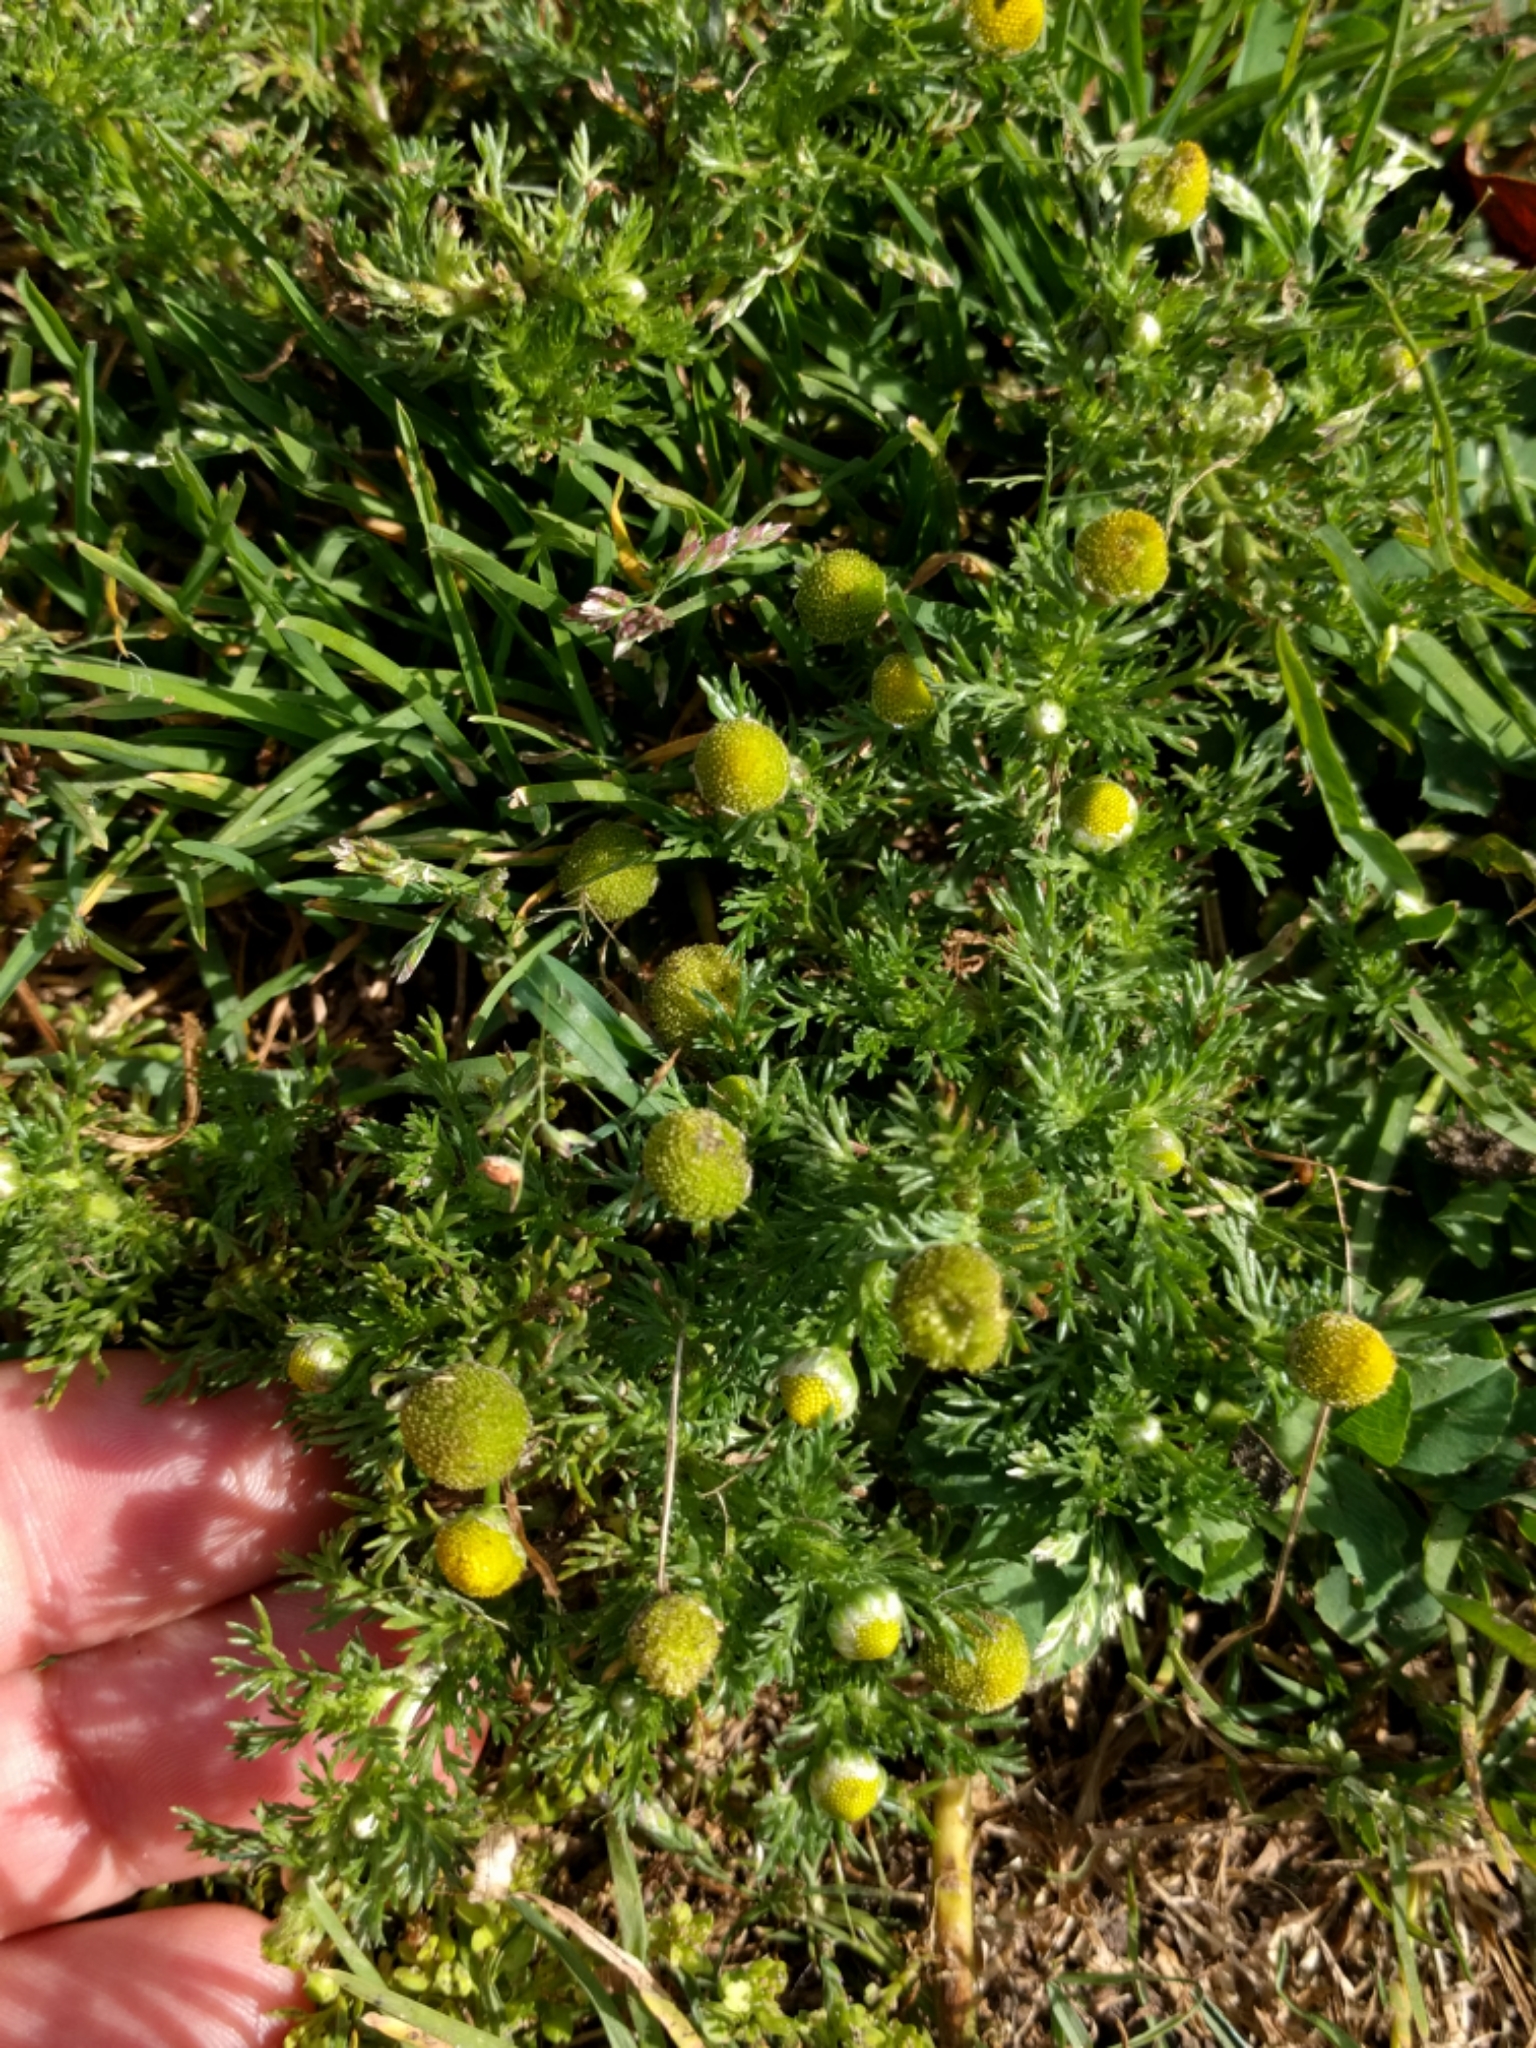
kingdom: Plantae
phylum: Tracheophyta
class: Magnoliopsida
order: Asterales
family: Asteraceae
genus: Matricaria
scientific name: Matricaria discoidea
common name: Disc mayweed
